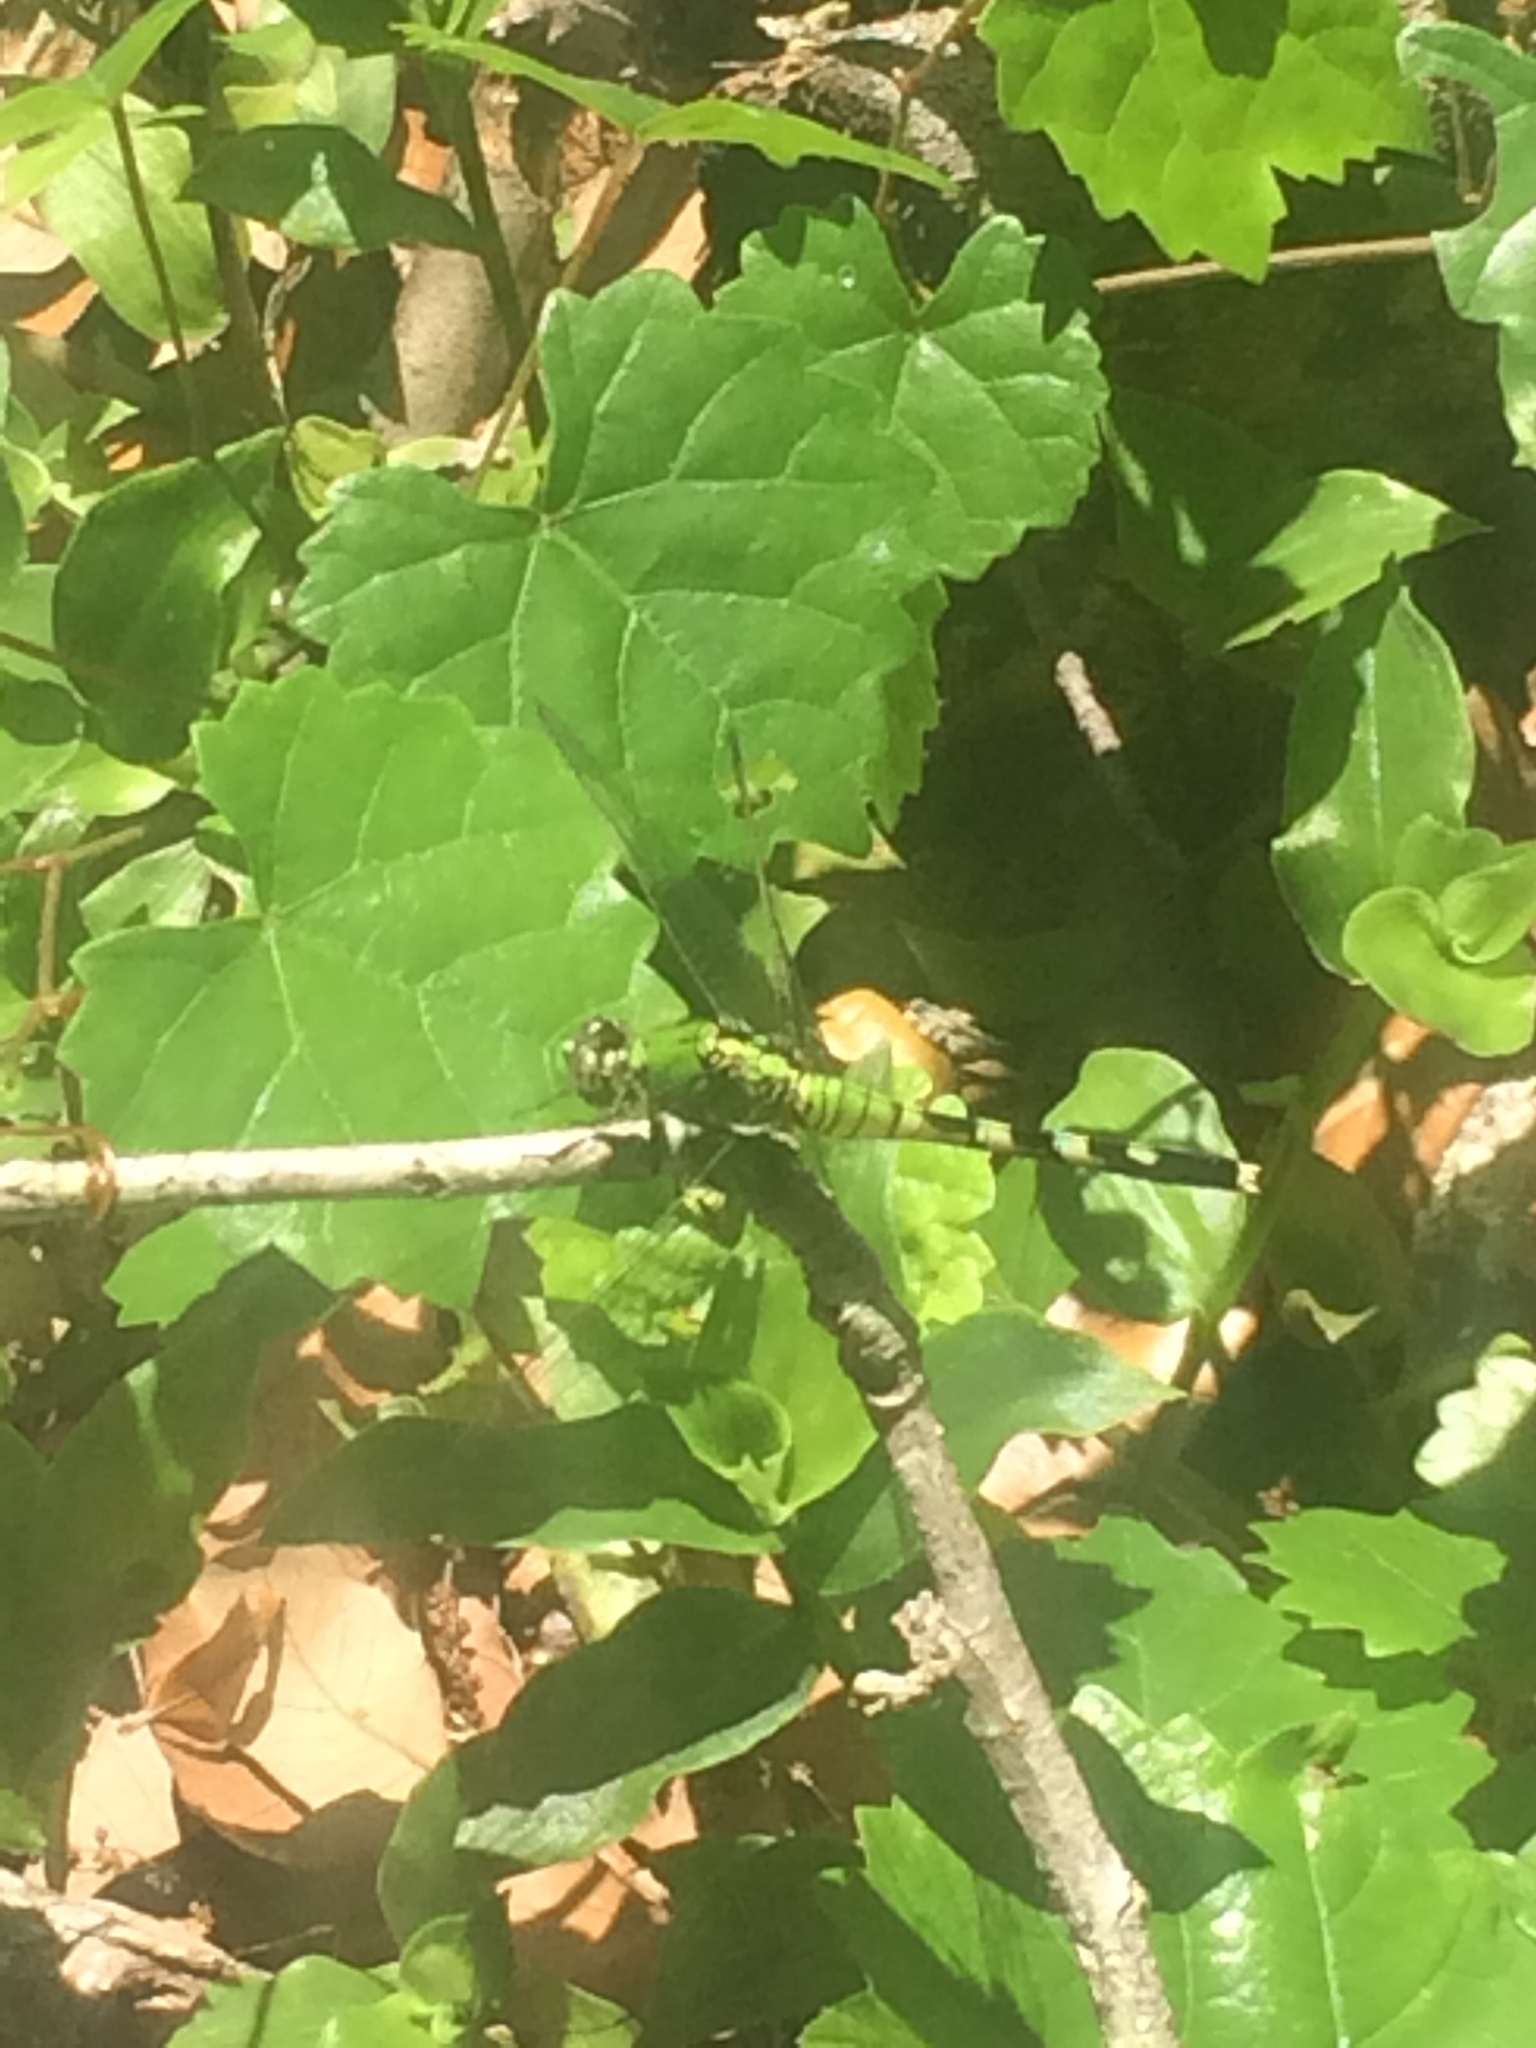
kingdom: Animalia
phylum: Arthropoda
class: Insecta
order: Odonata
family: Libellulidae
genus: Erythemis
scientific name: Erythemis simplicicollis
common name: Eastern pondhawk
